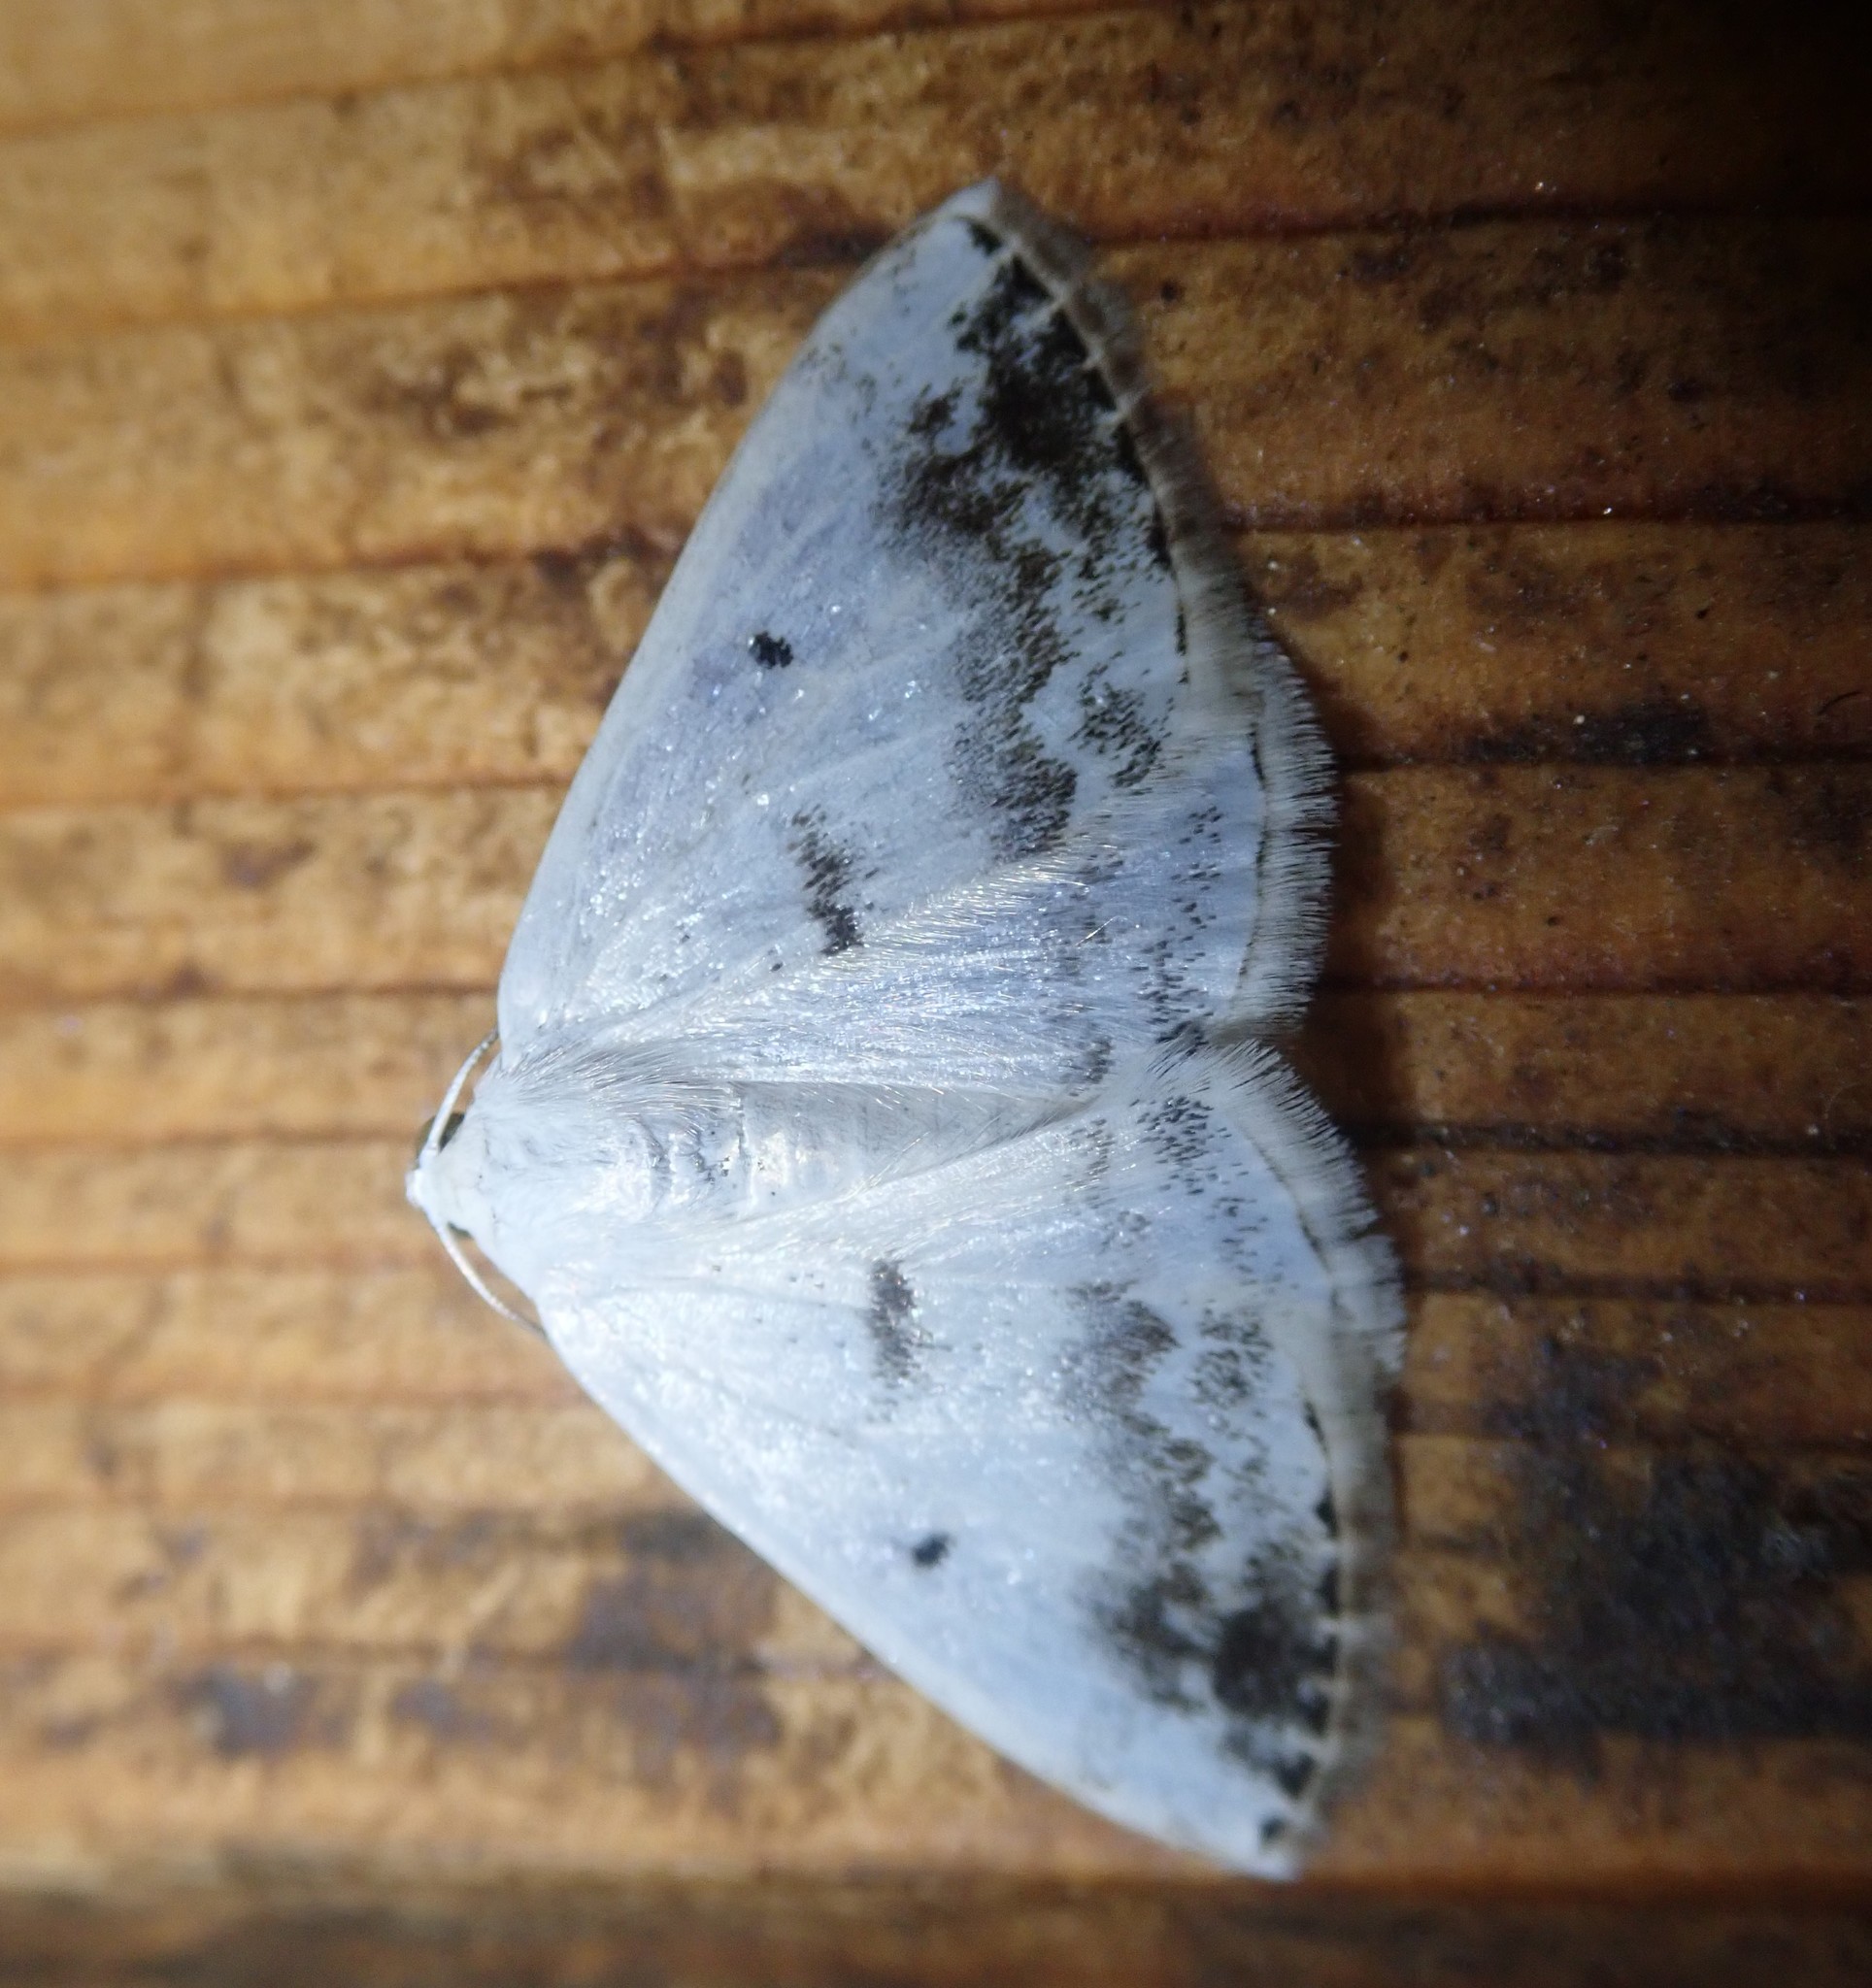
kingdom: Animalia
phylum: Arthropoda
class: Insecta
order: Lepidoptera
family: Geometridae
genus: Lomographa
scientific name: Lomographa temerata
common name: Clouded silver
